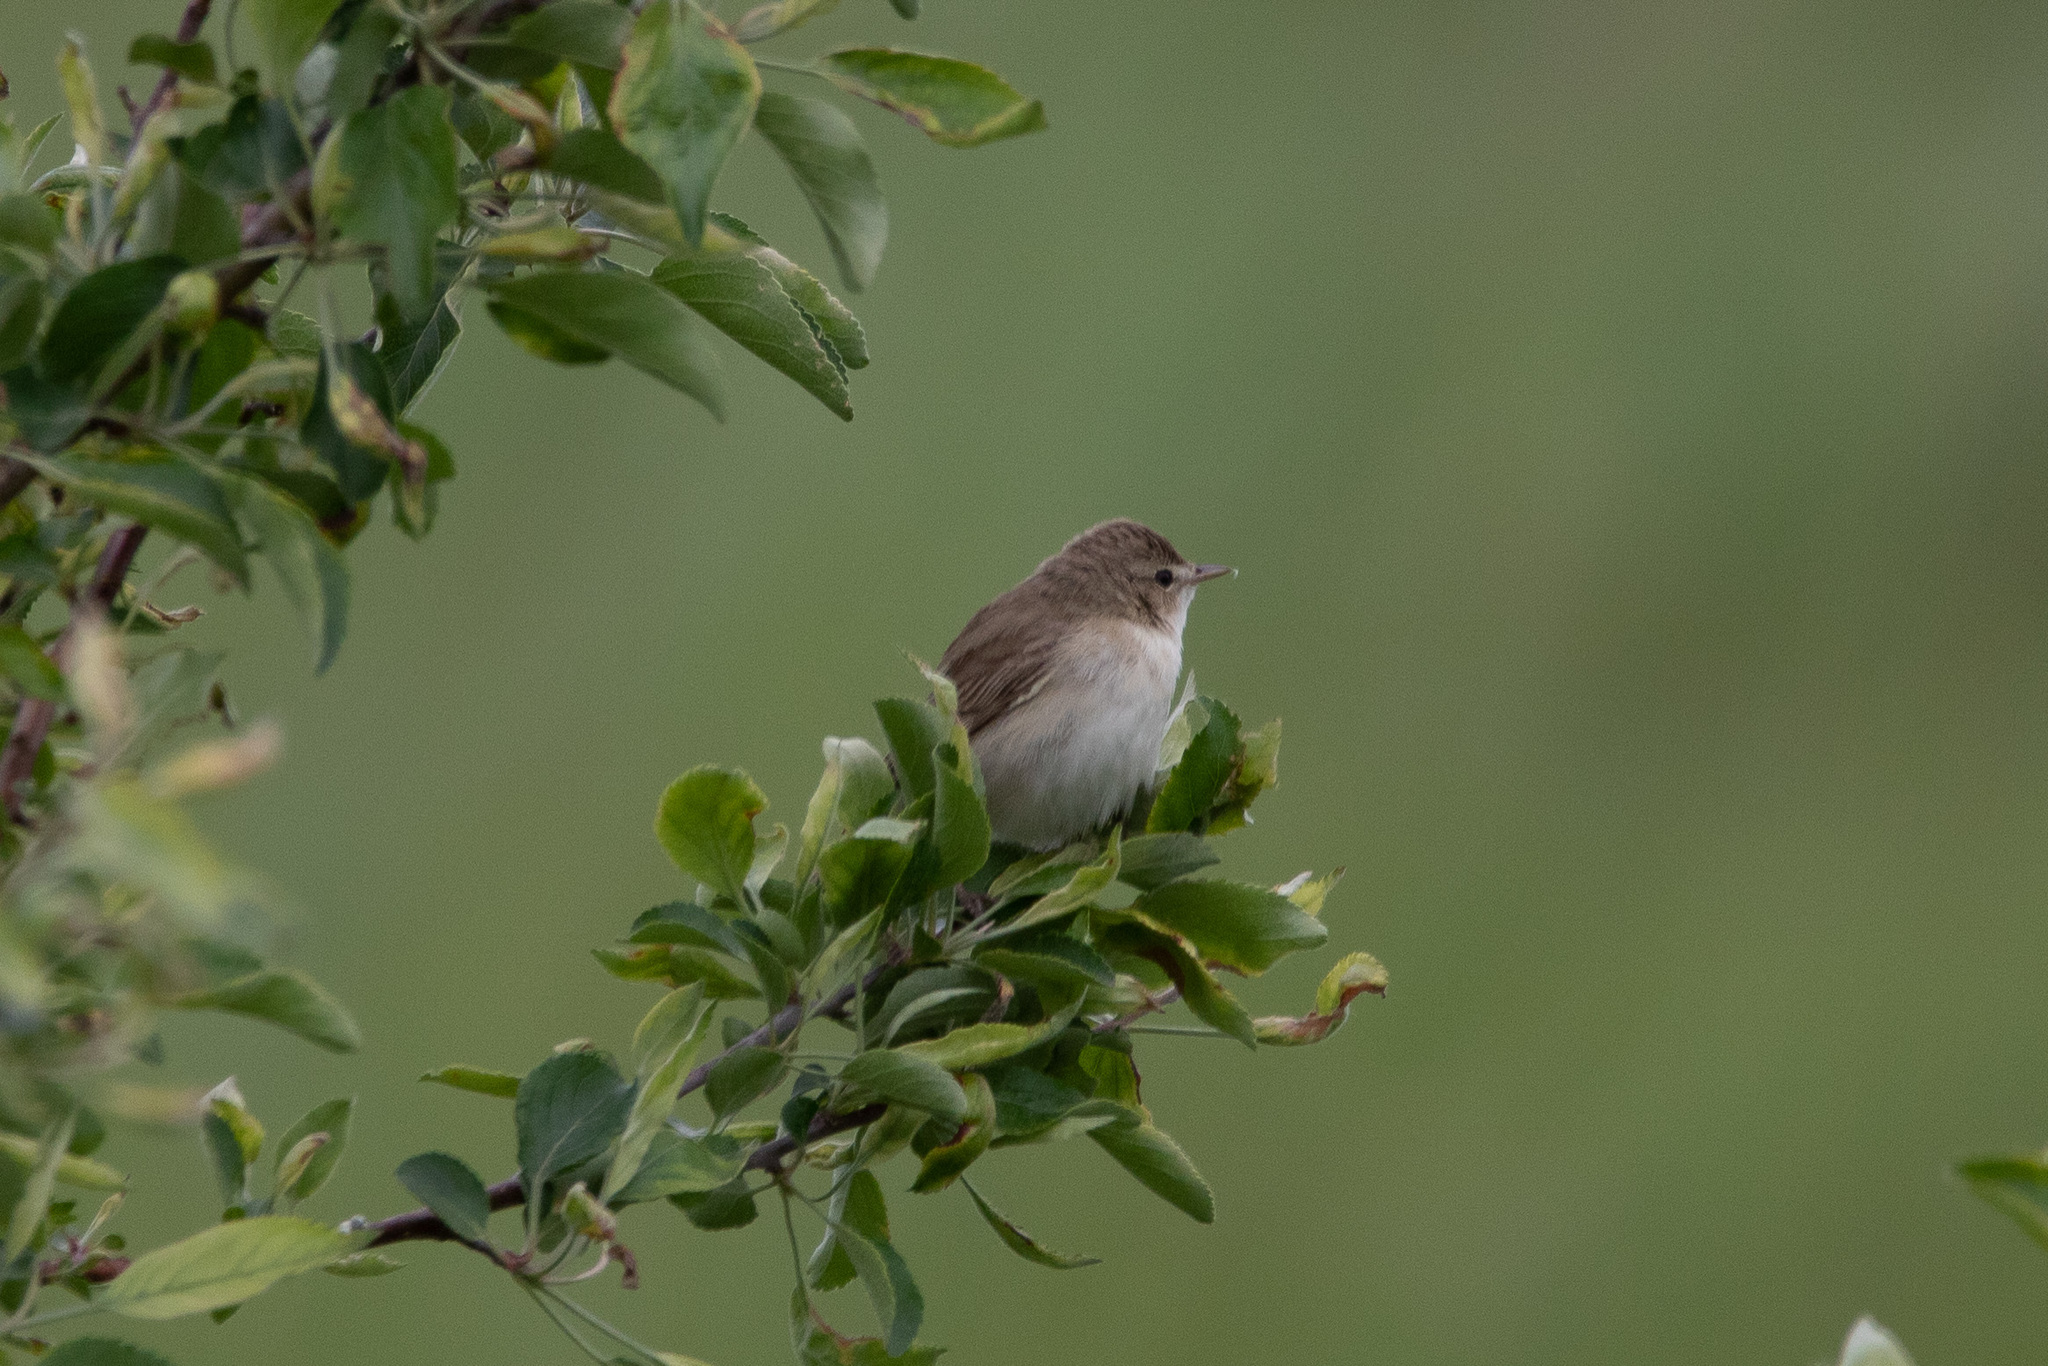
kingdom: Animalia
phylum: Chordata
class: Aves
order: Passeriformes
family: Acrocephalidae
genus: Iduna
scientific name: Iduna caligata
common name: Booted warbler
